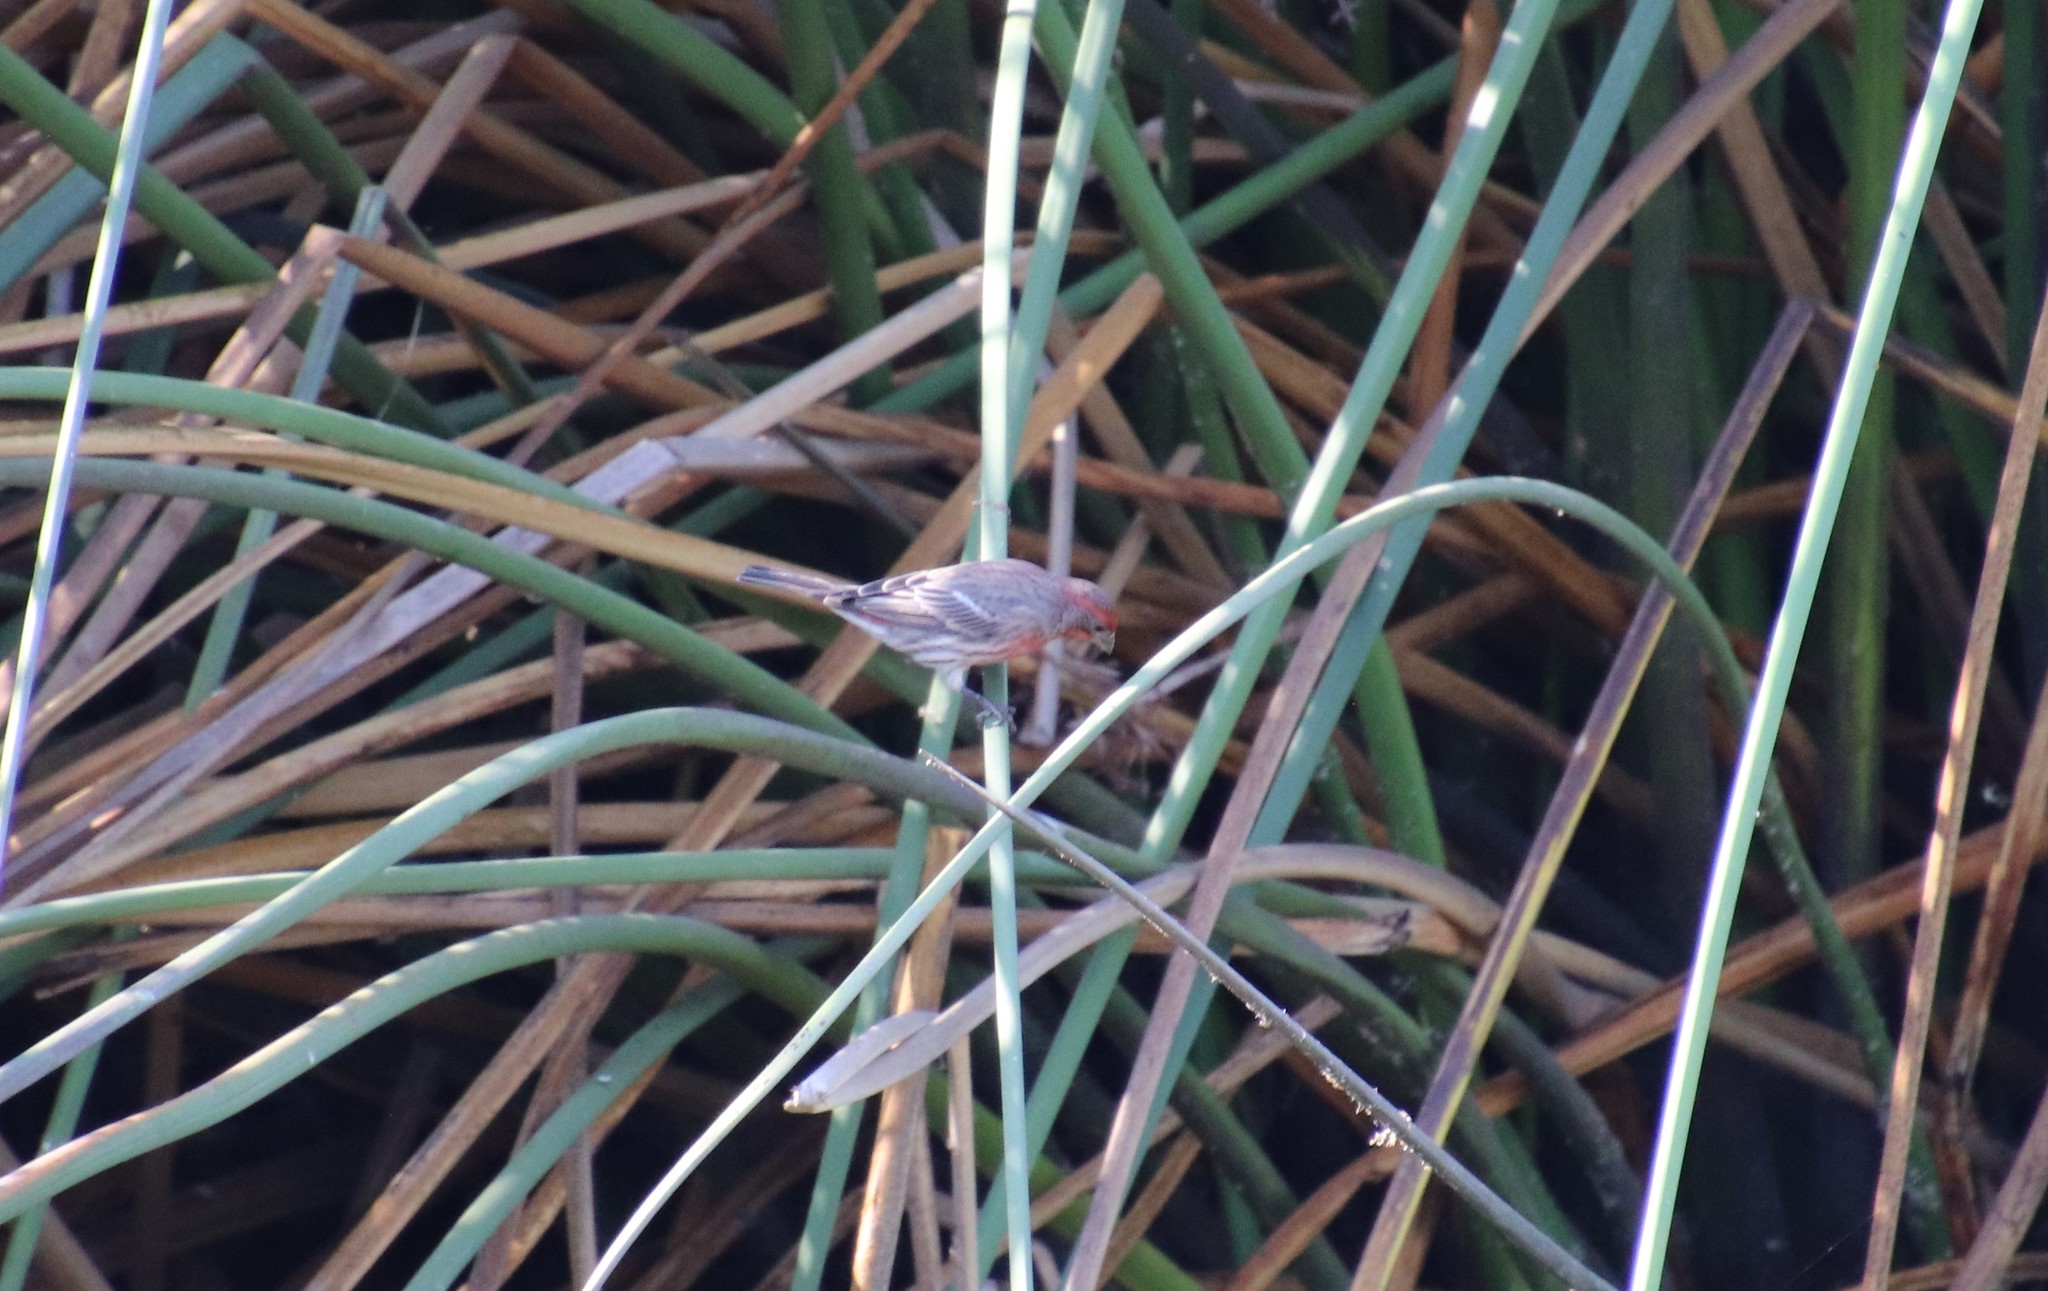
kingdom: Animalia
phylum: Chordata
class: Aves
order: Passeriformes
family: Fringillidae
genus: Haemorhous
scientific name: Haemorhous mexicanus
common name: House finch
